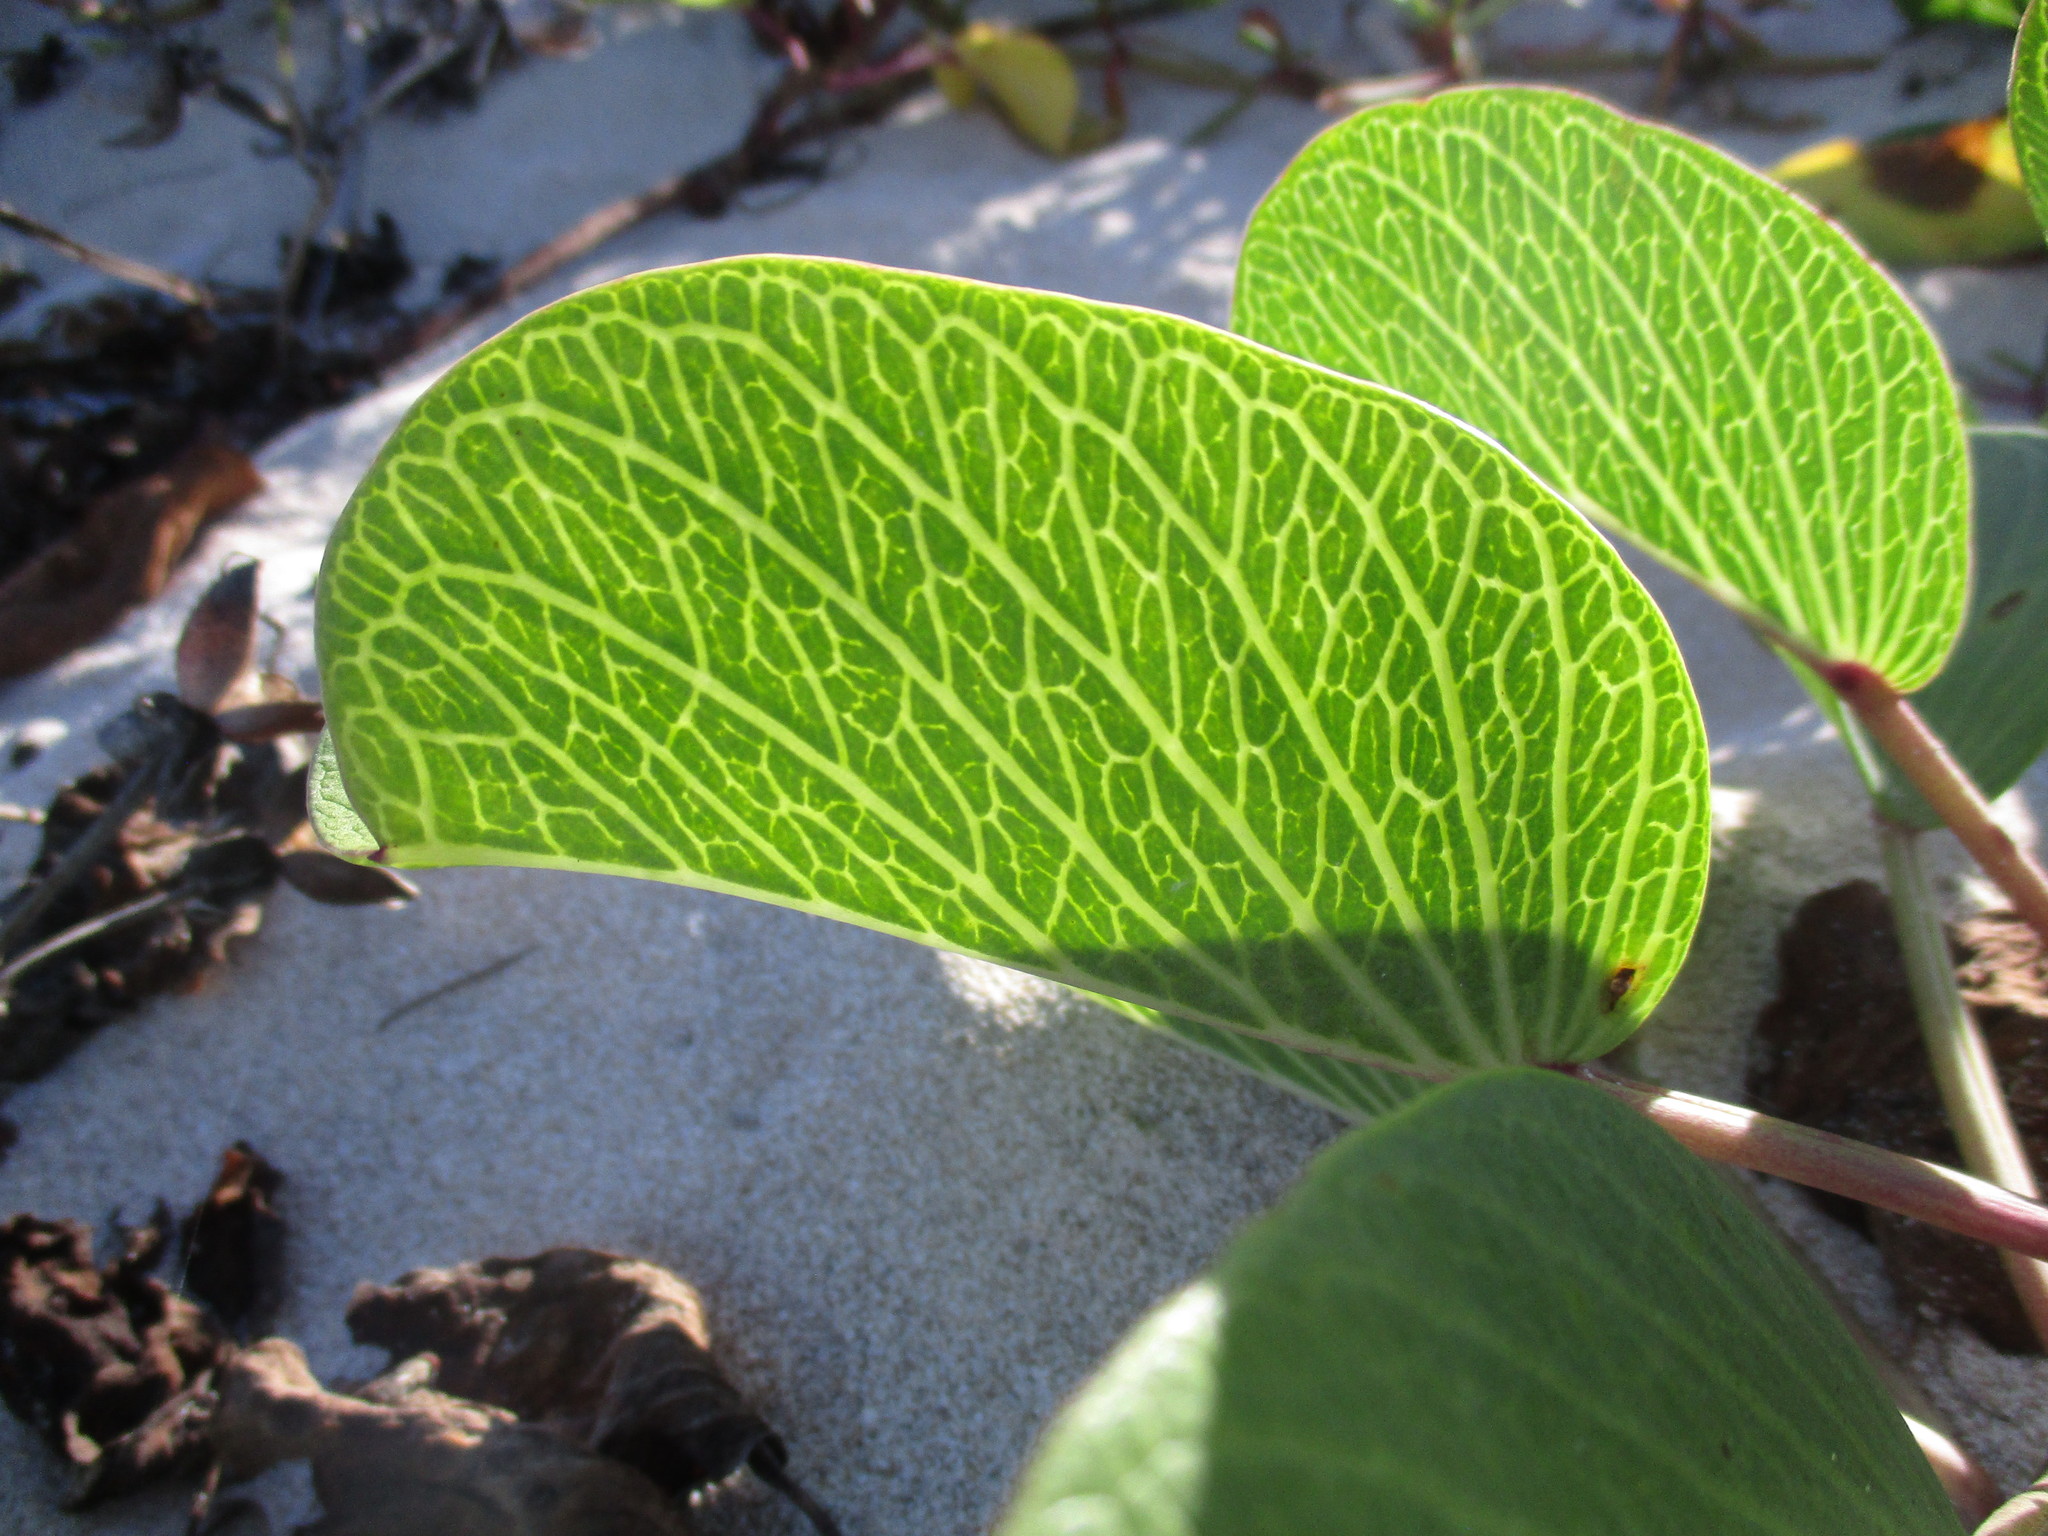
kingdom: Plantae
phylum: Tracheophyta
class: Magnoliopsida
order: Solanales
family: Convolvulaceae
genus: Ipomoea
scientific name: Ipomoea pes-caprae
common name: Beach morning glory
